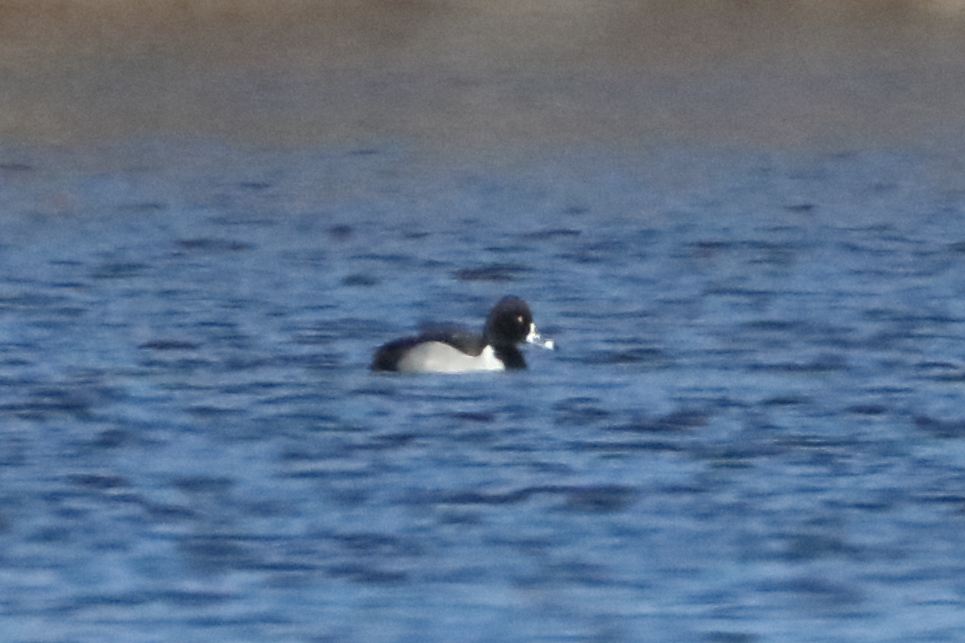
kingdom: Animalia
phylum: Chordata
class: Aves
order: Anseriformes
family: Anatidae
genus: Aythya
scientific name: Aythya collaris
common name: Ring-necked duck
